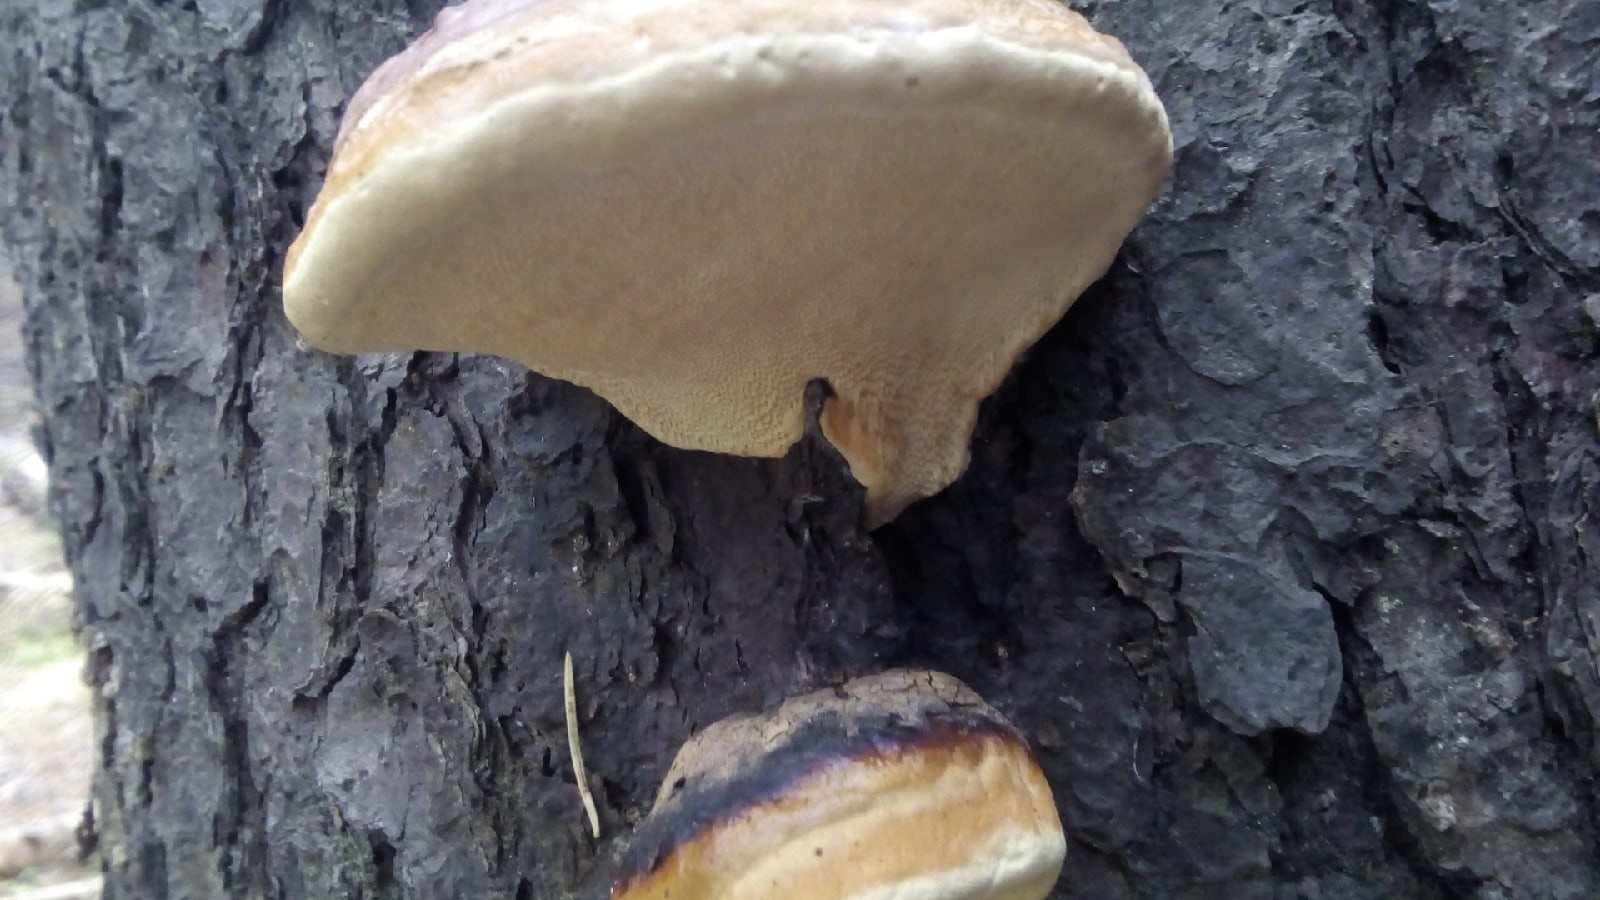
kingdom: Fungi
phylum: Basidiomycota
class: Agaricomycetes
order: Polyporales
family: Fomitopsidaceae
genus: Fomitopsis
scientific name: Fomitopsis pinicola
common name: Red-belted bracket
